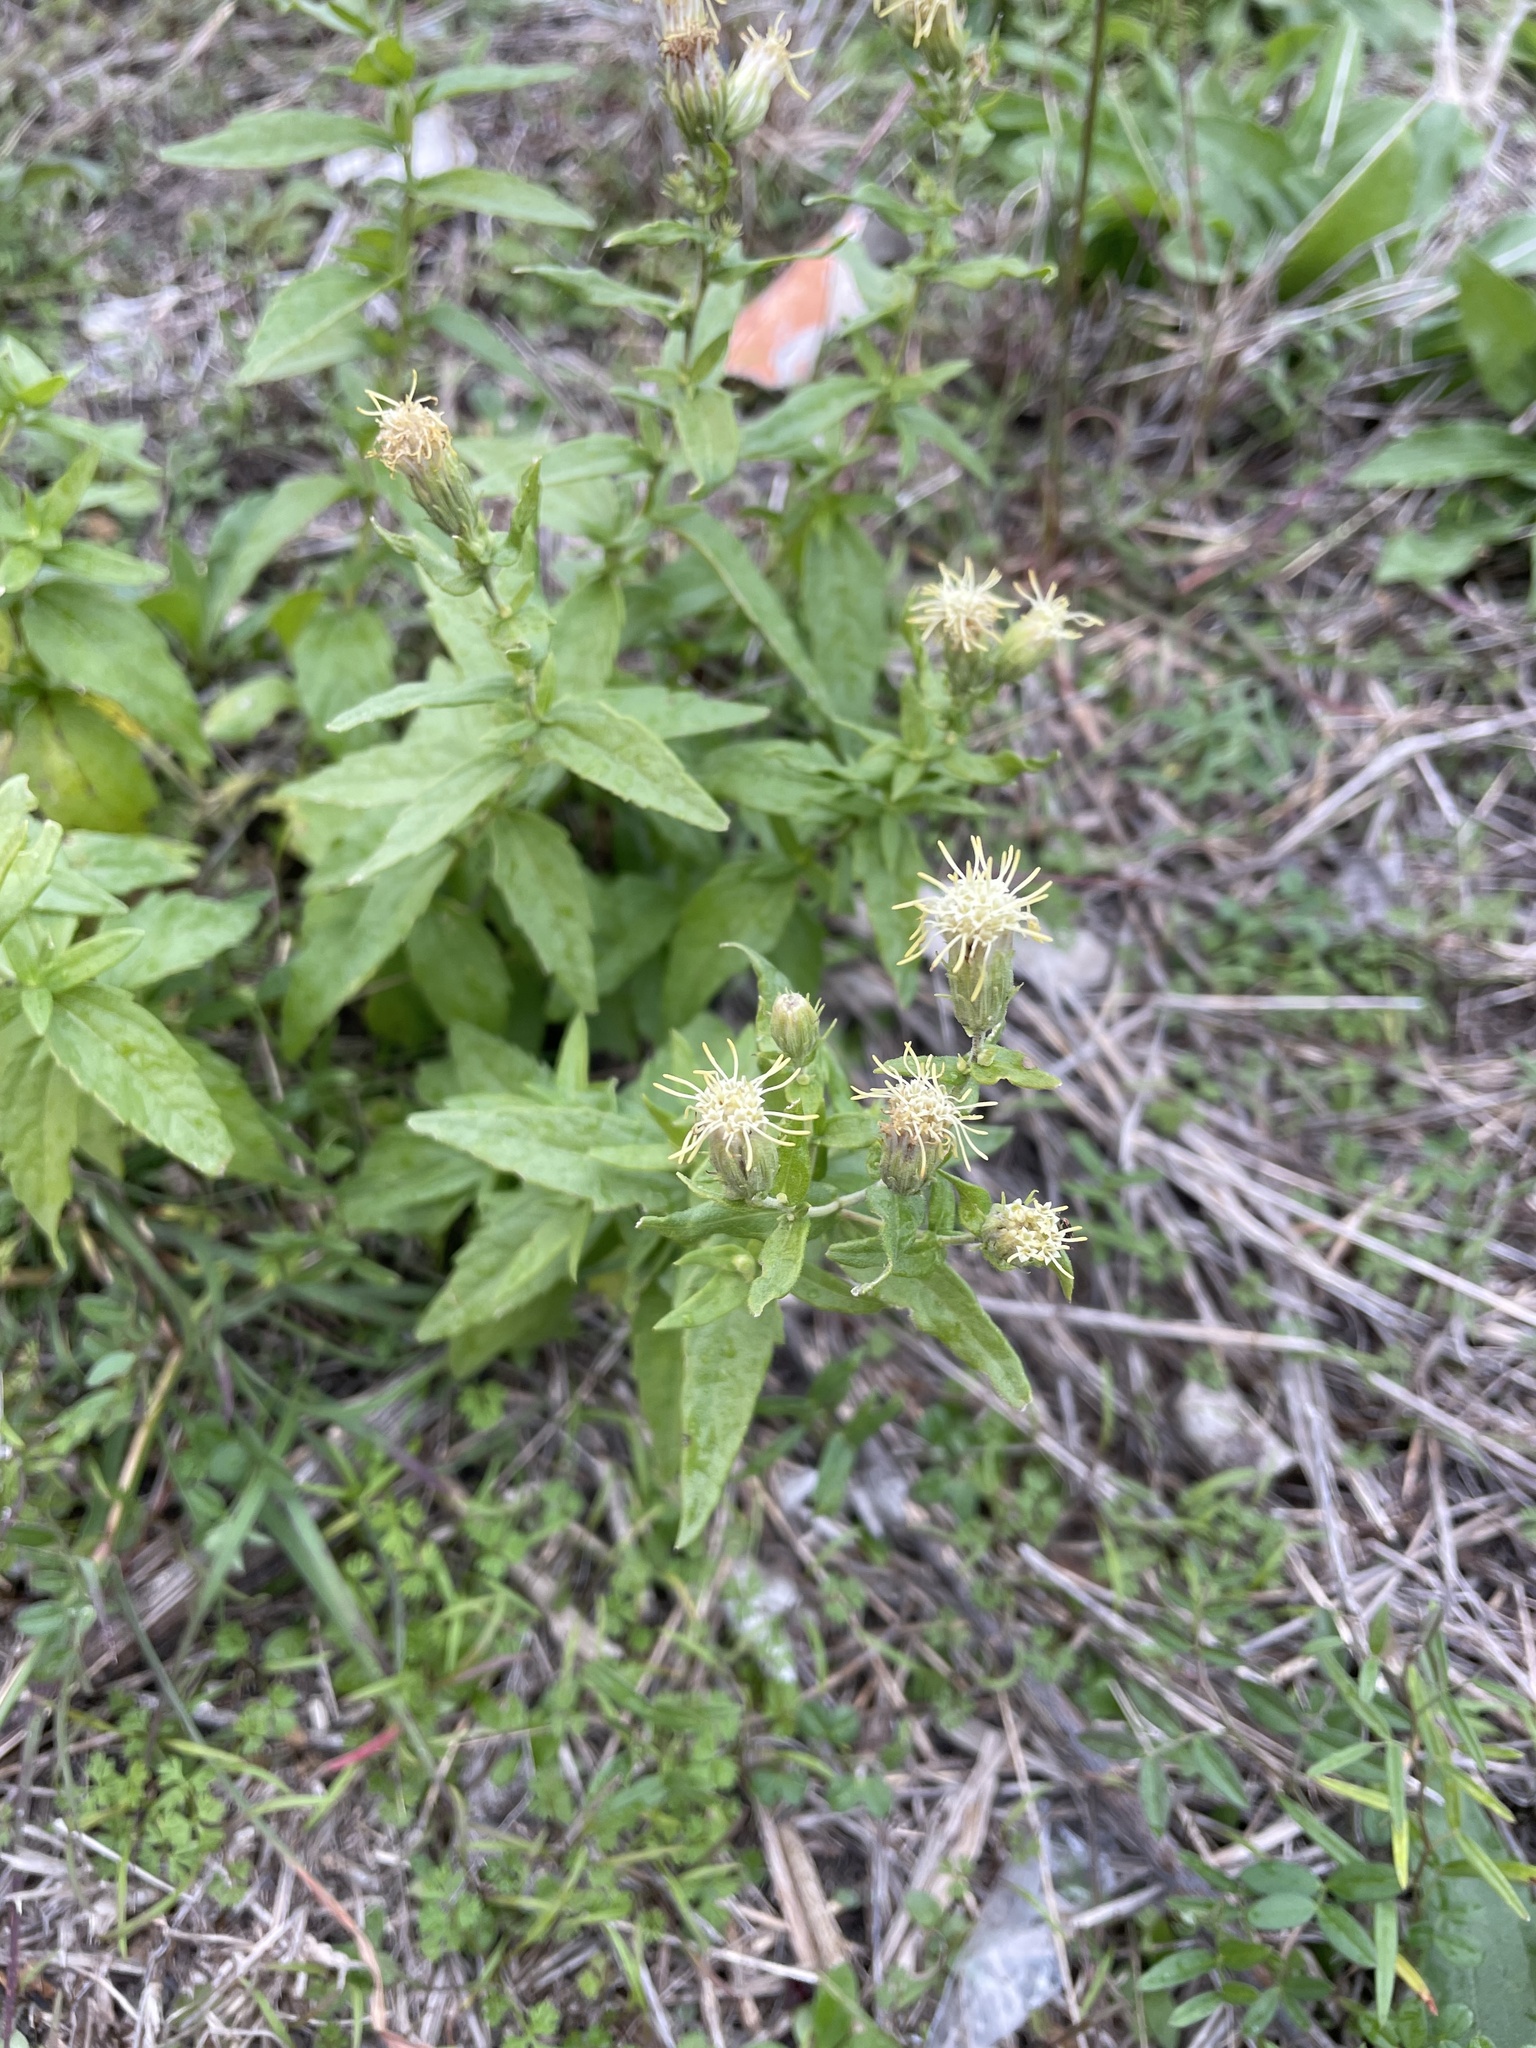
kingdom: Plantae
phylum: Tracheophyta
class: Magnoliopsida
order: Asterales
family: Asteraceae
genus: Brickellia
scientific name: Brickellia eupatorioides
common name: False boneset
